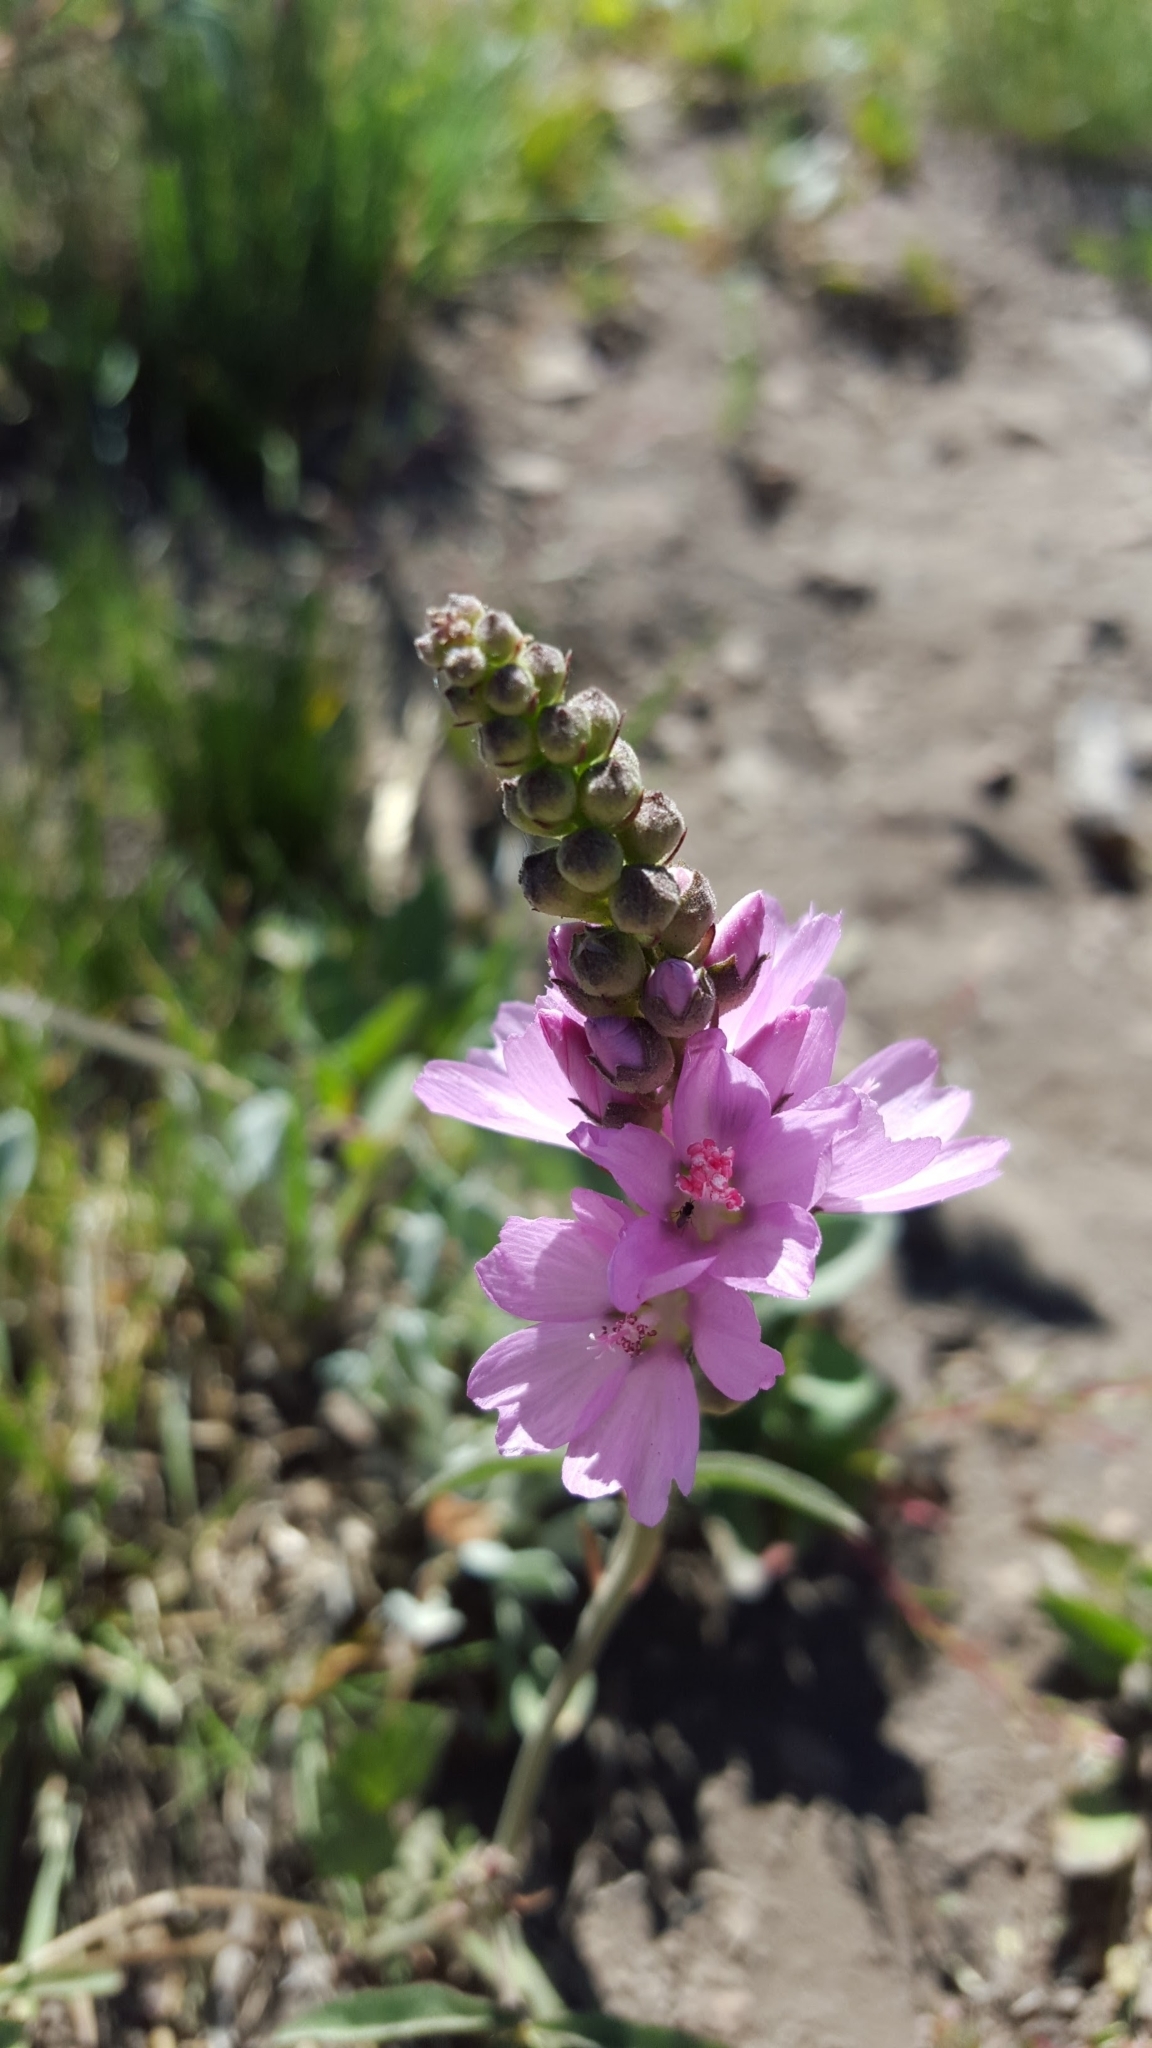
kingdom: Plantae
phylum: Tracheophyta
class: Magnoliopsida
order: Malvales
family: Malvaceae
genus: Sidalcea
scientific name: Sidalcea oregana
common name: Oregon checker-mallow
